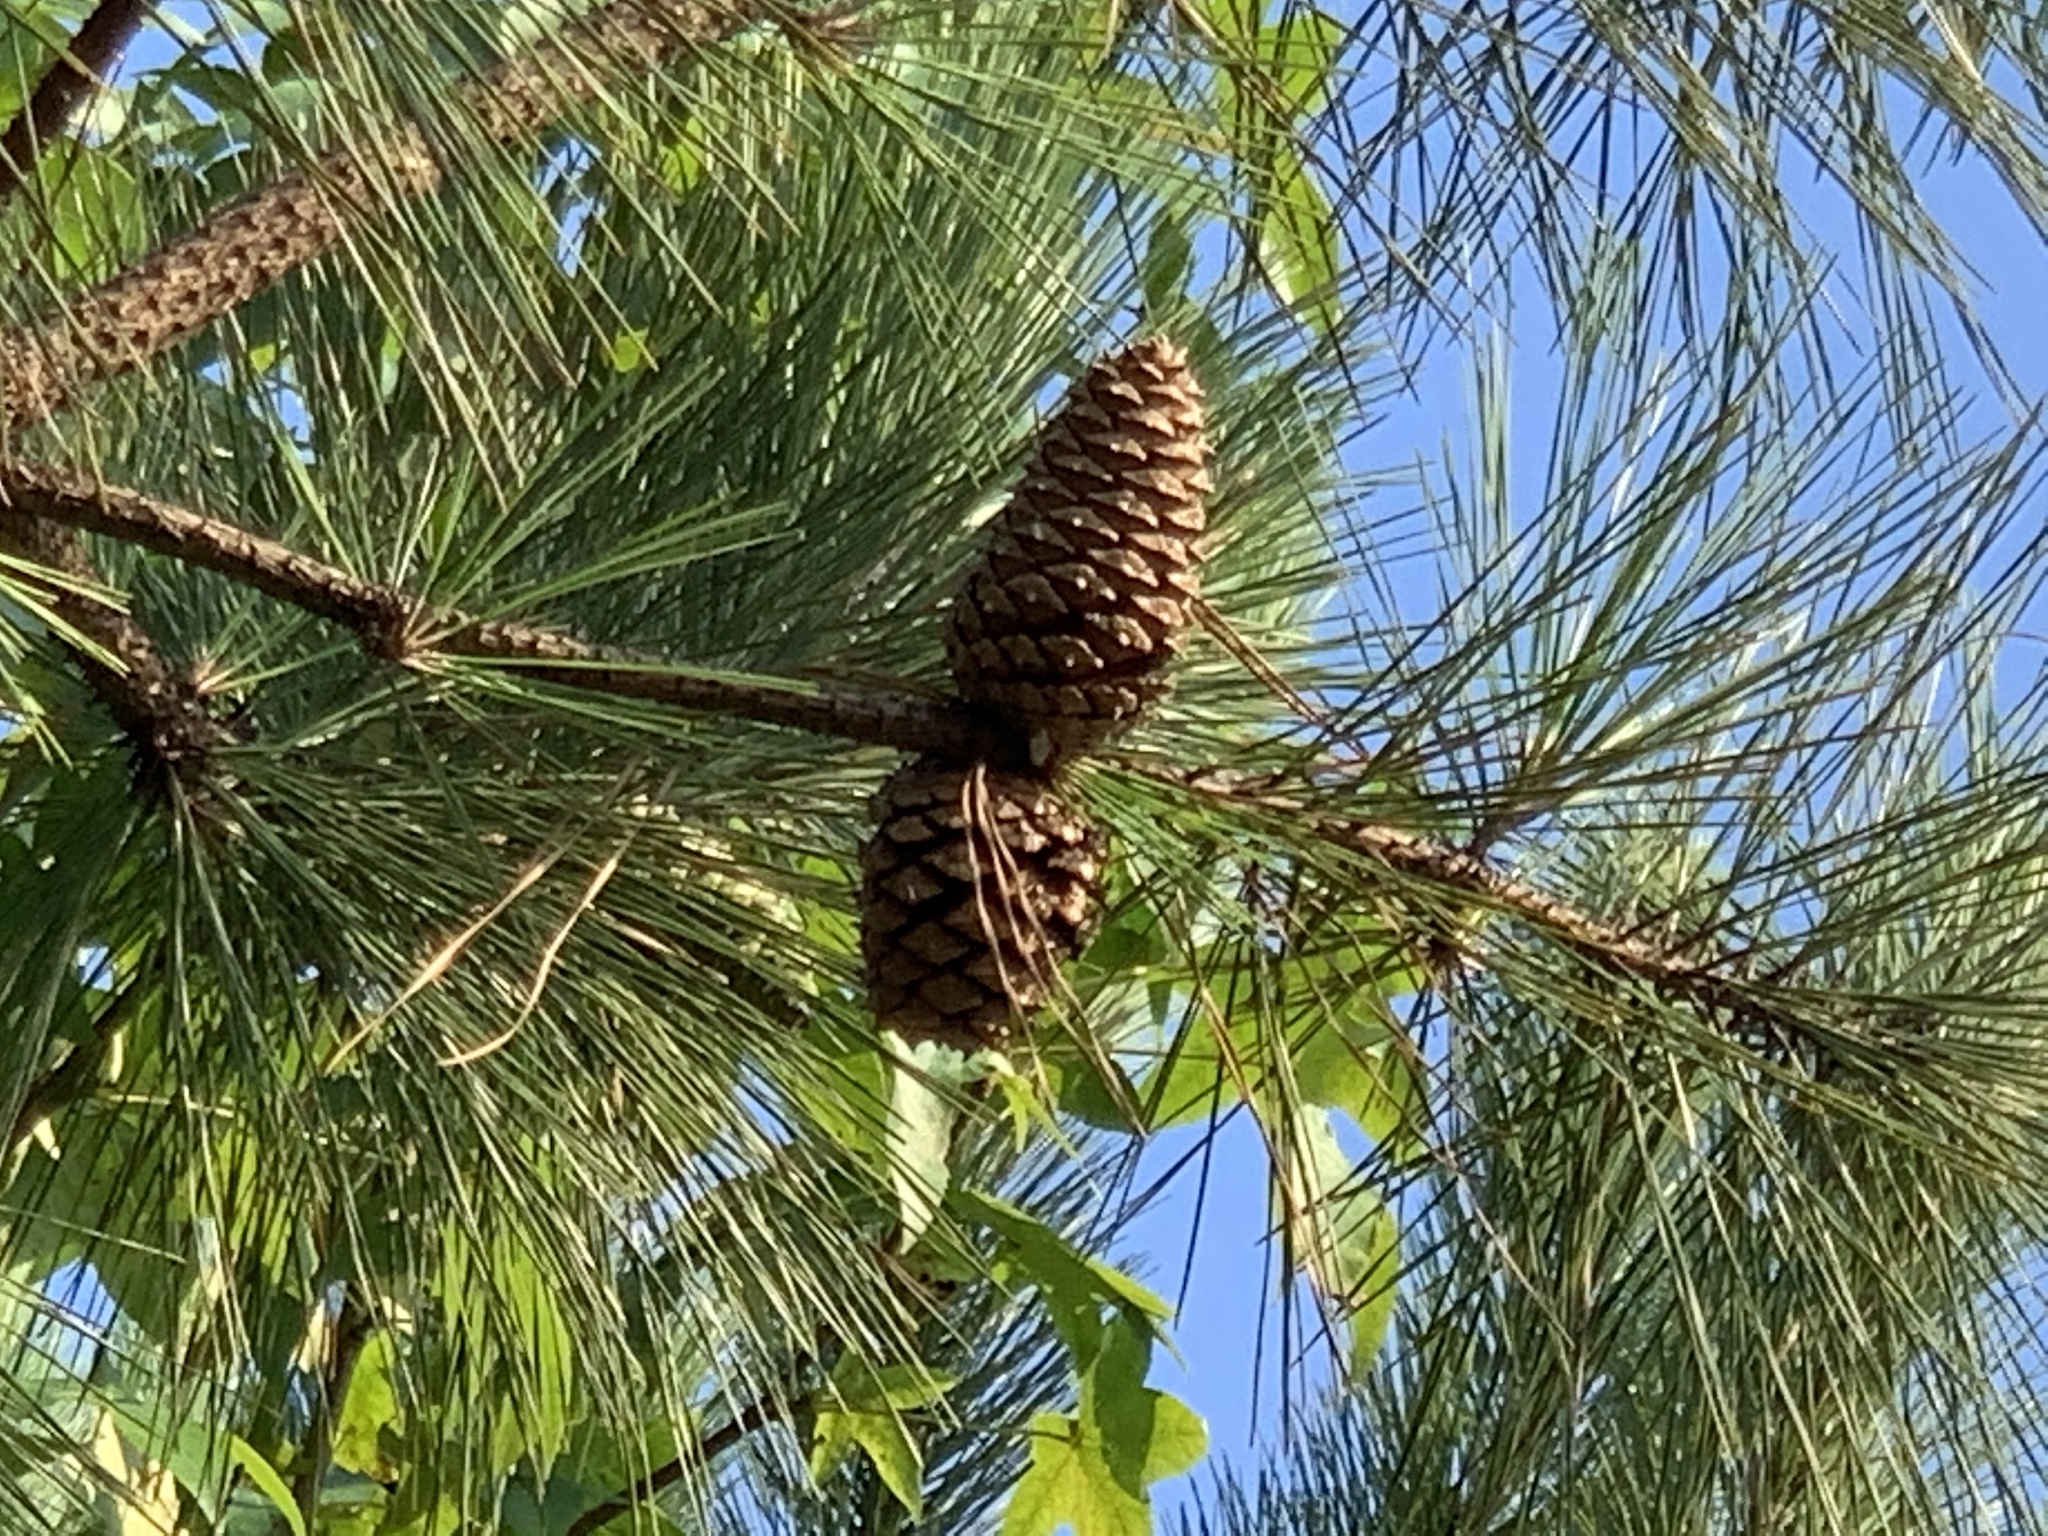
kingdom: Plantae
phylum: Tracheophyta
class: Pinopsida
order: Pinales
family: Pinaceae
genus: Pinus
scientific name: Pinus taeda
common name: Loblolly pine
